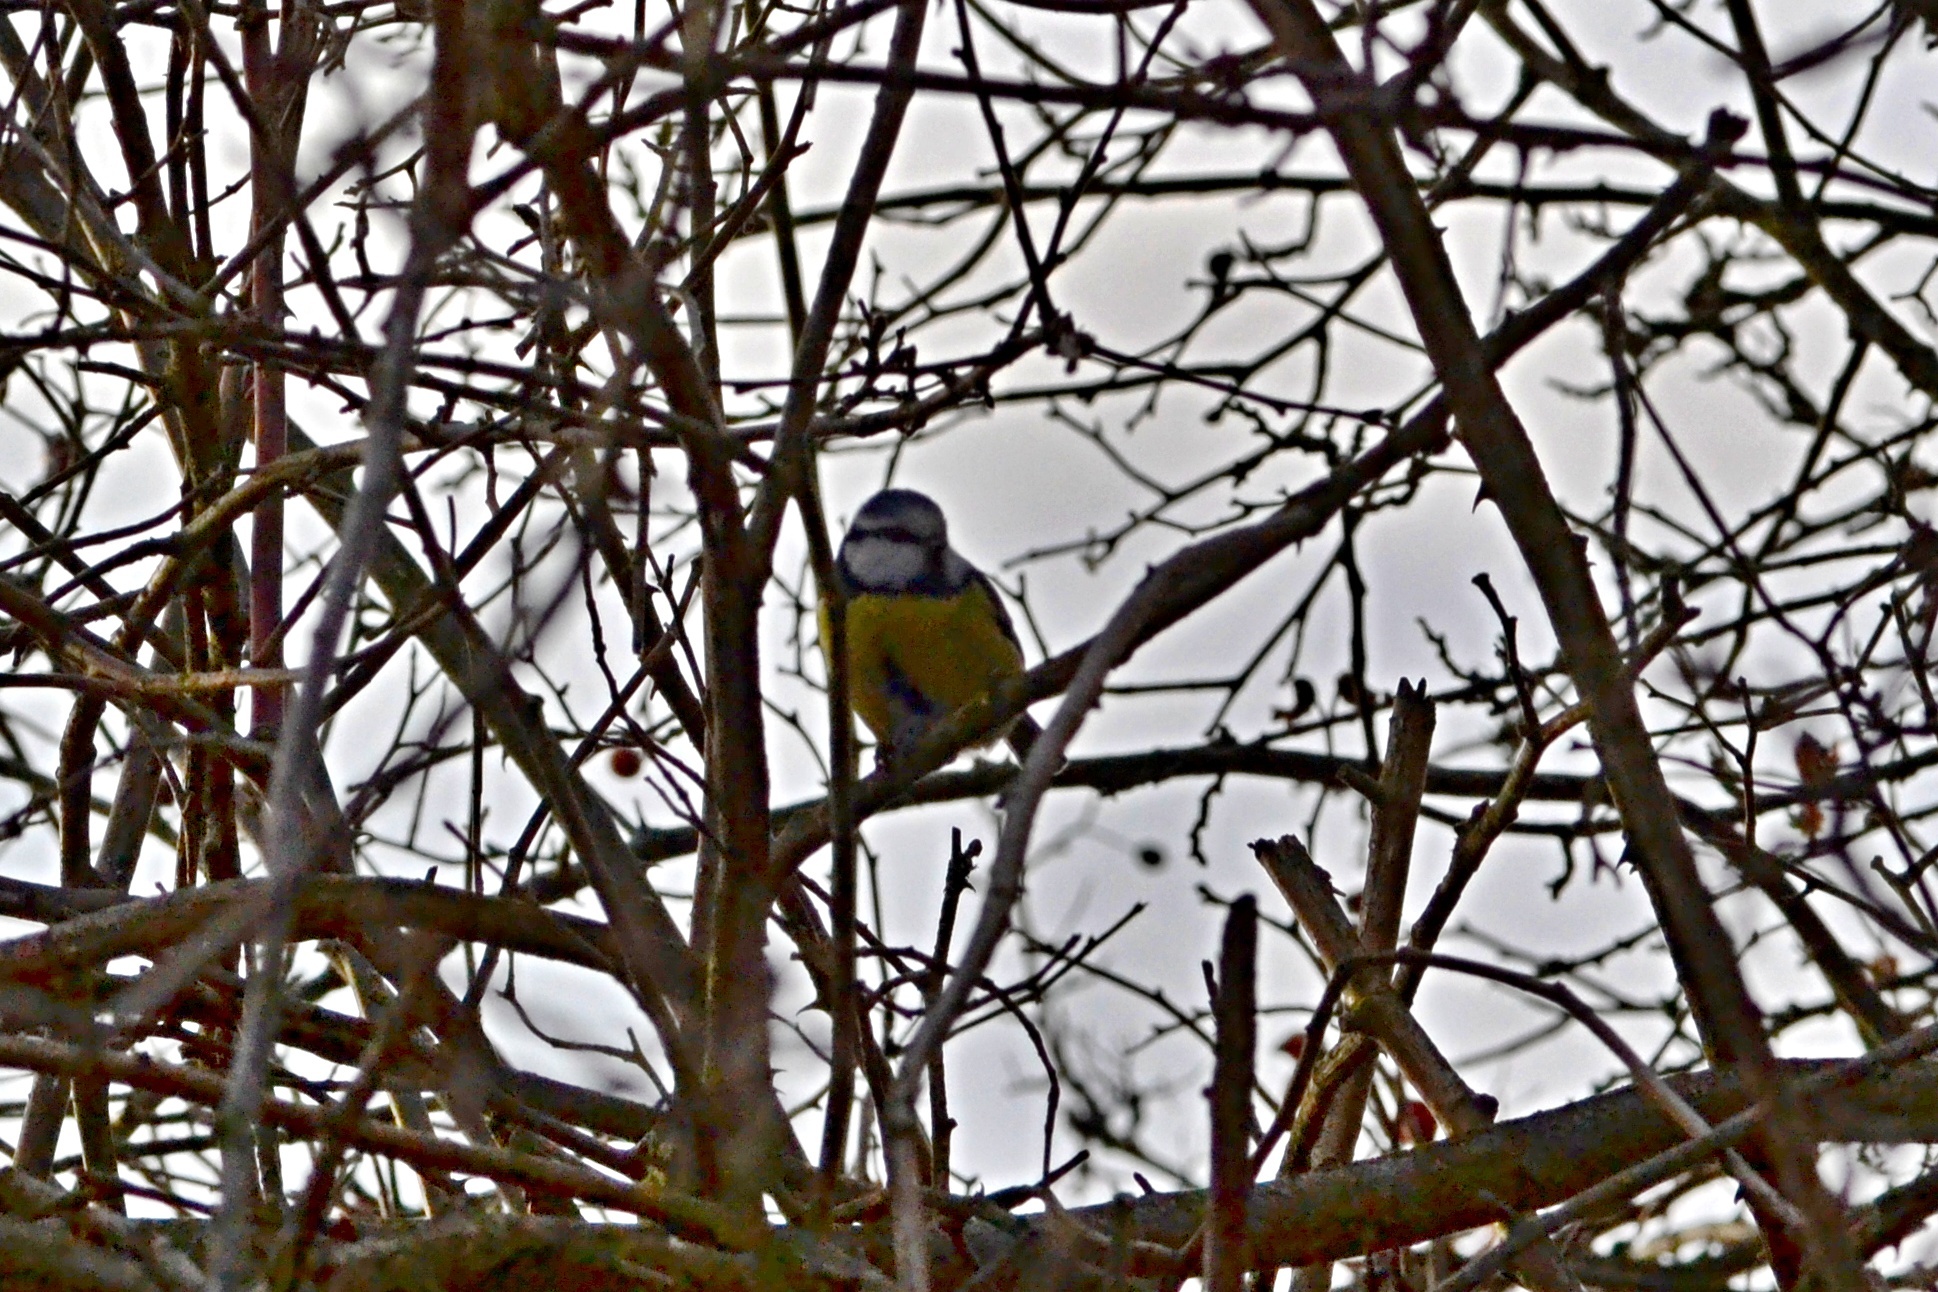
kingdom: Animalia
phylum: Chordata
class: Aves
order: Passeriformes
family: Paridae
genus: Cyanistes
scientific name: Cyanistes caeruleus
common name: Eurasian blue tit
